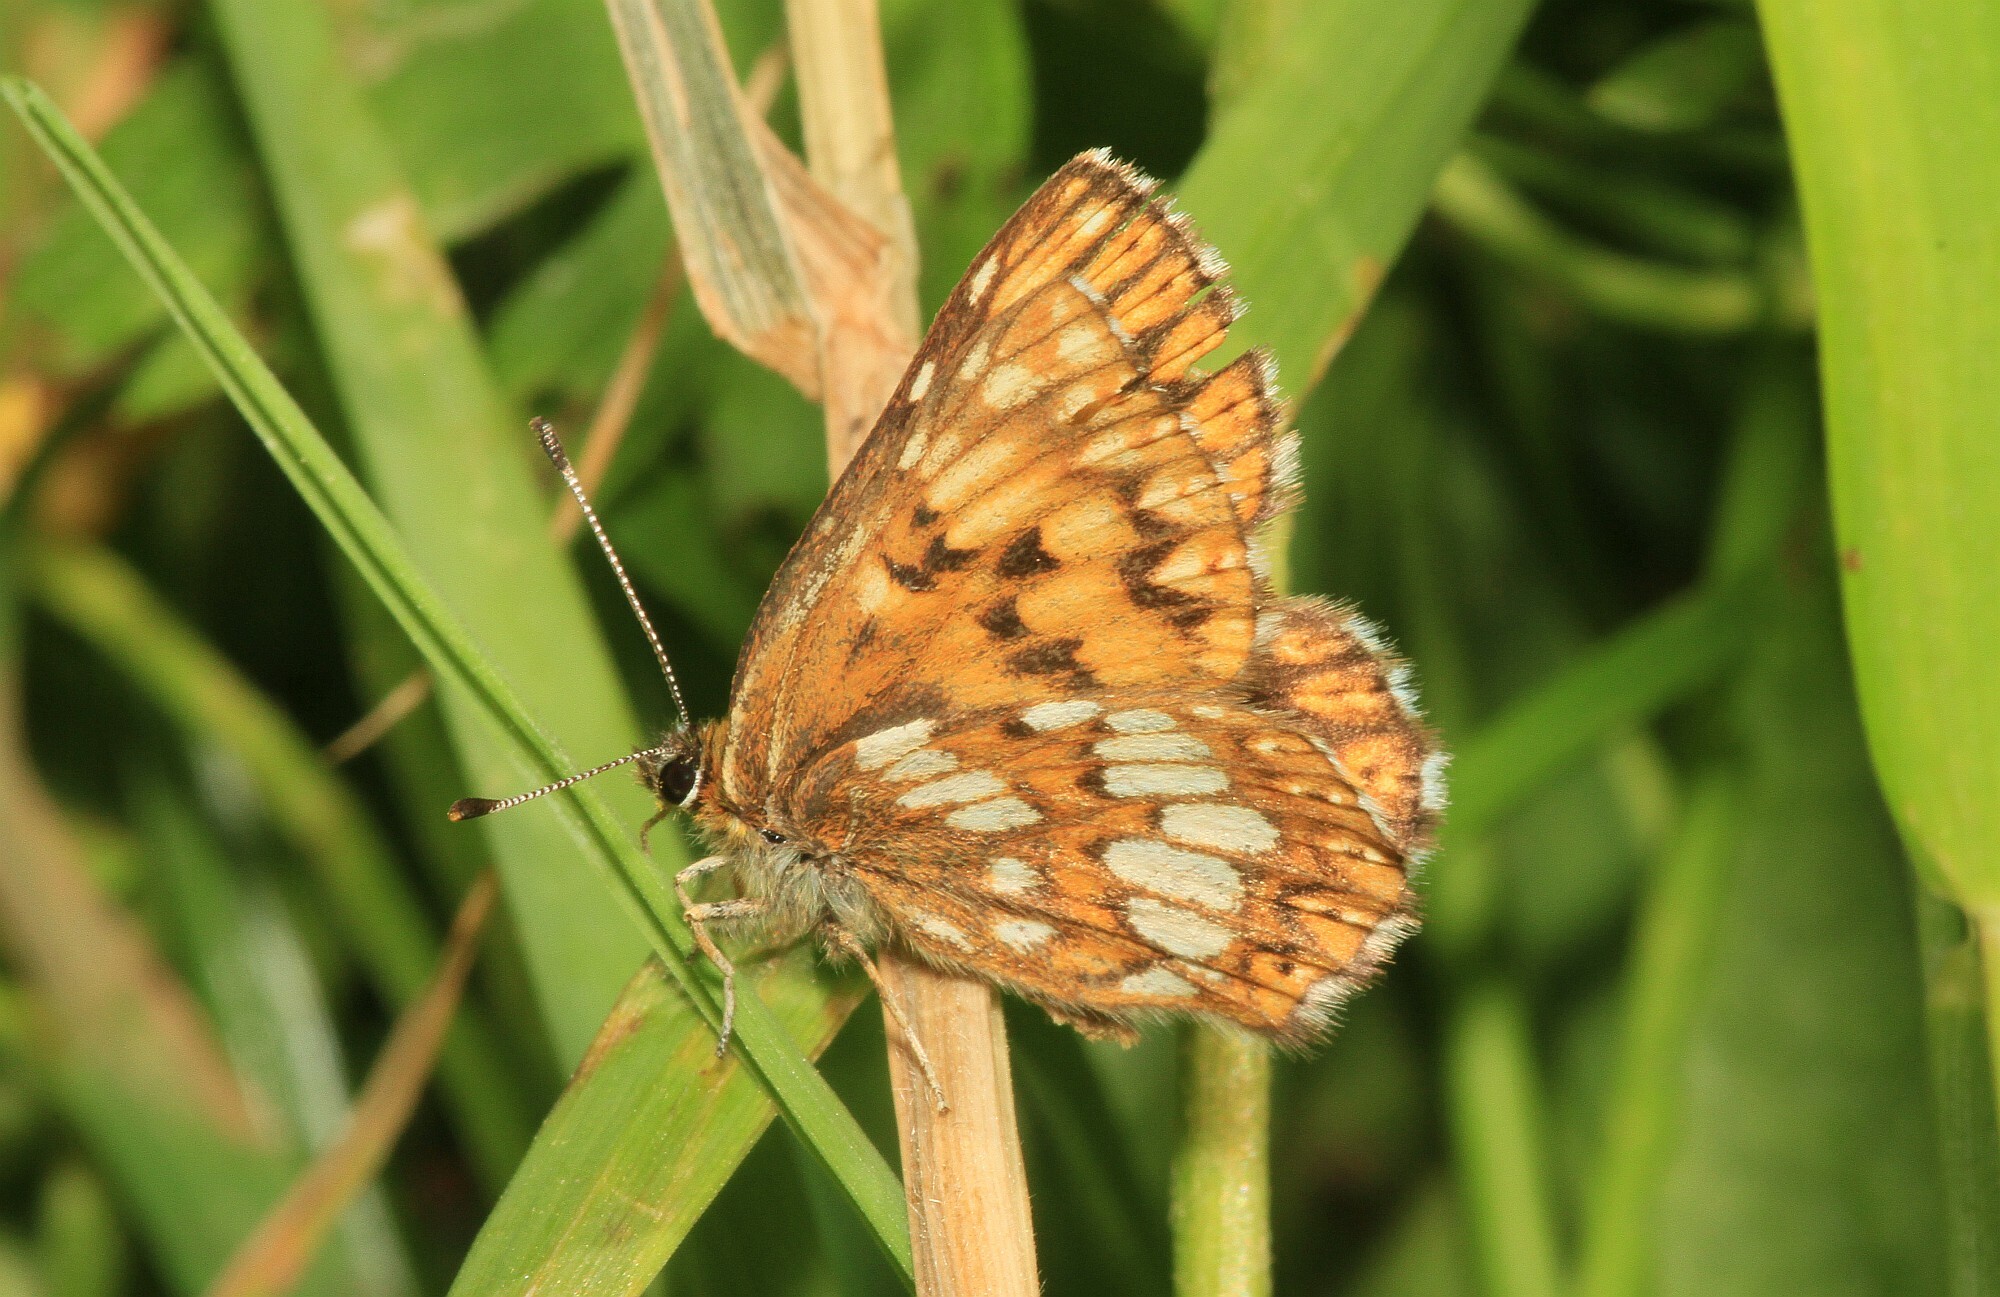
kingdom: Animalia
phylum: Arthropoda
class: Insecta
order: Lepidoptera
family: Riodinidae
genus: Hamearis
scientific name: Hamearis lucina
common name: Duke of burgundy fritillary
